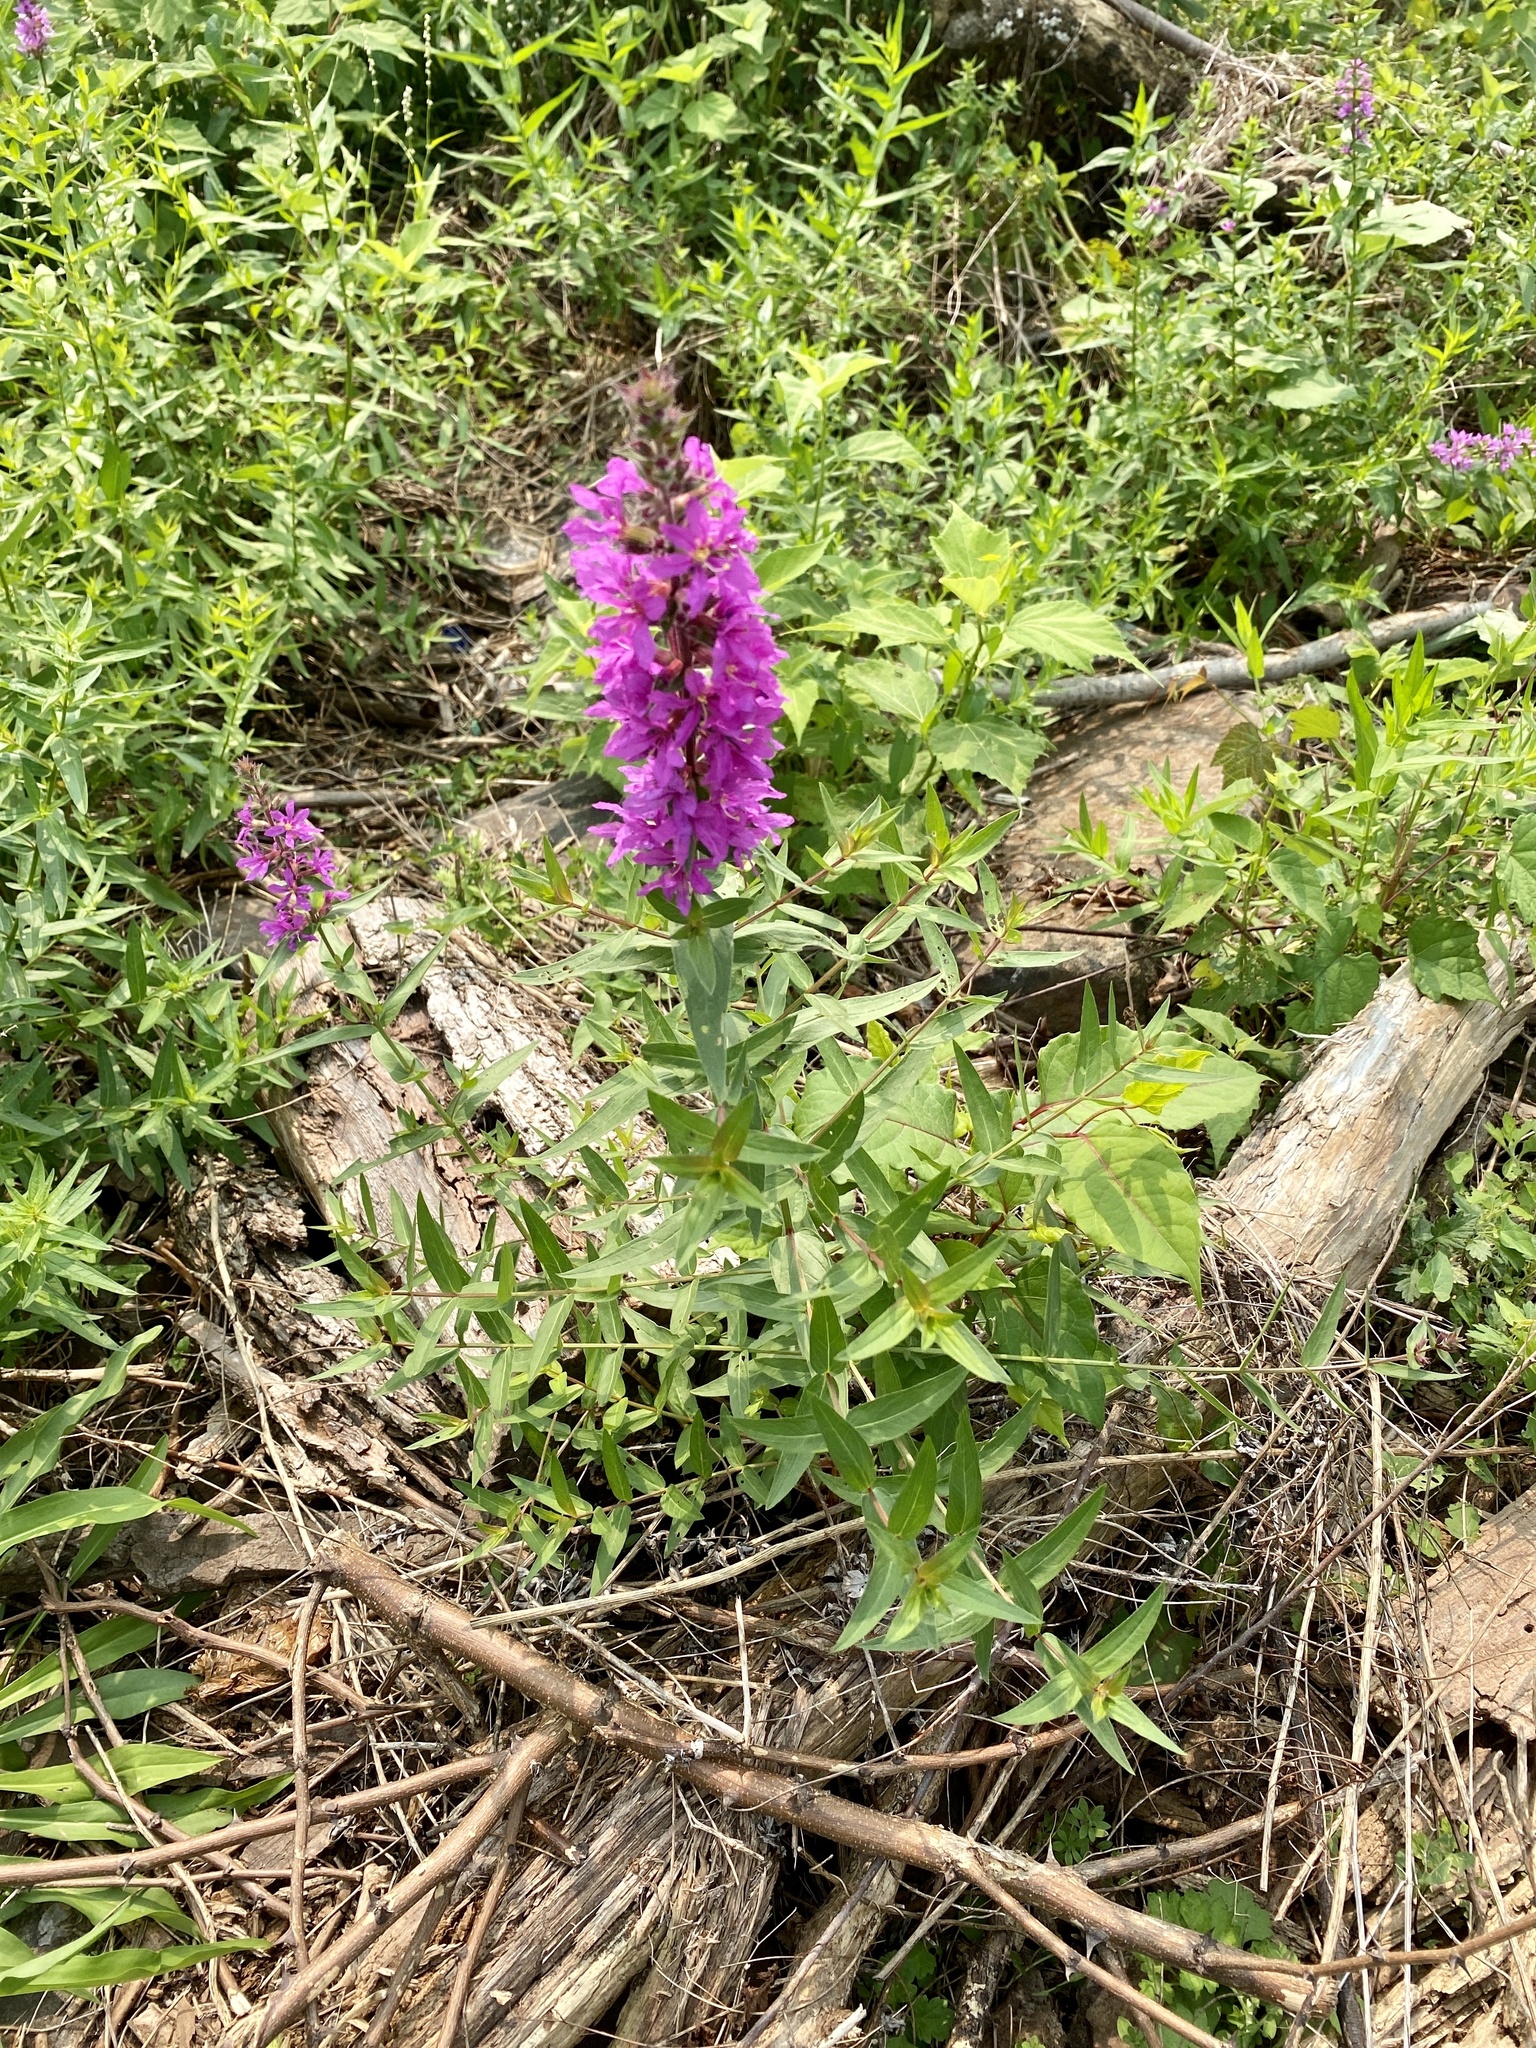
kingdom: Plantae
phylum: Tracheophyta
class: Magnoliopsida
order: Myrtales
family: Lythraceae
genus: Lythrum
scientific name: Lythrum salicaria
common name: Purple loosestrife
